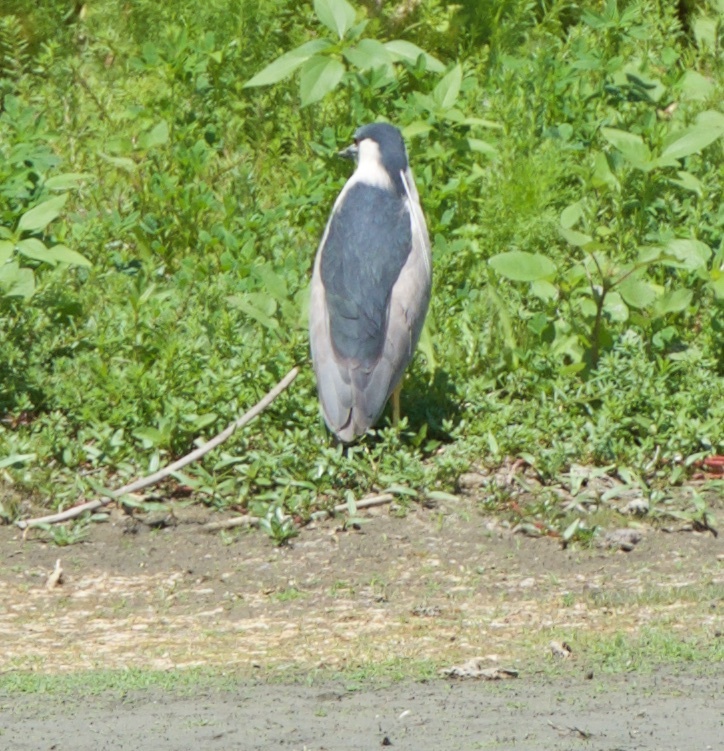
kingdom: Animalia
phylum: Chordata
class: Aves
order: Pelecaniformes
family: Ardeidae
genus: Nycticorax
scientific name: Nycticorax nycticorax
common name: Black-crowned night heron
